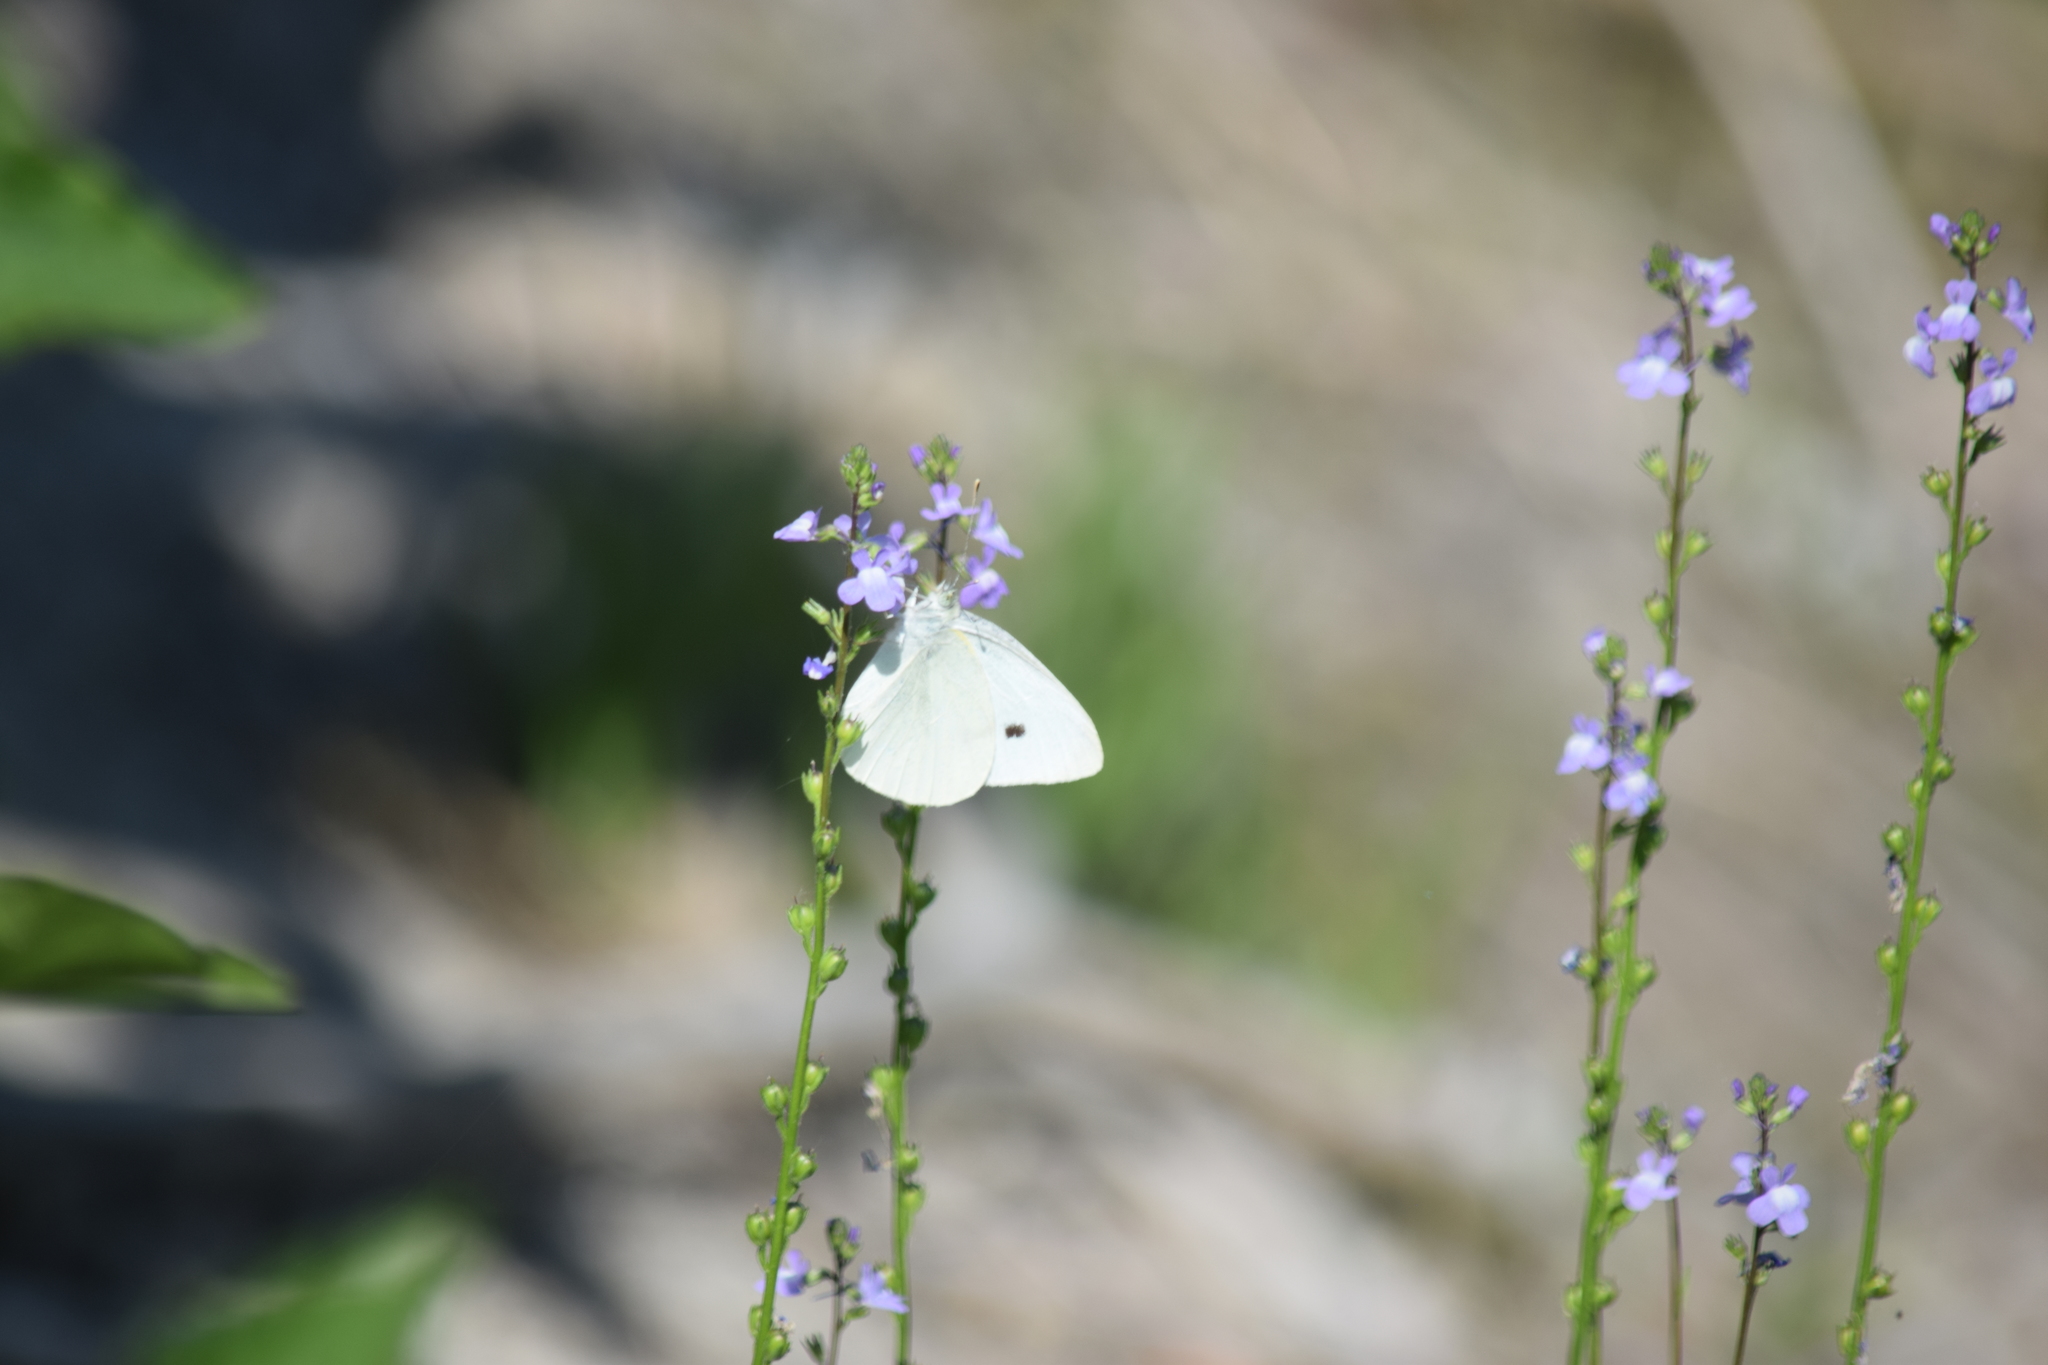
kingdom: Animalia
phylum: Arthropoda
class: Insecta
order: Lepidoptera
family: Pieridae
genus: Pieris
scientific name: Pieris rapae
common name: Small white
